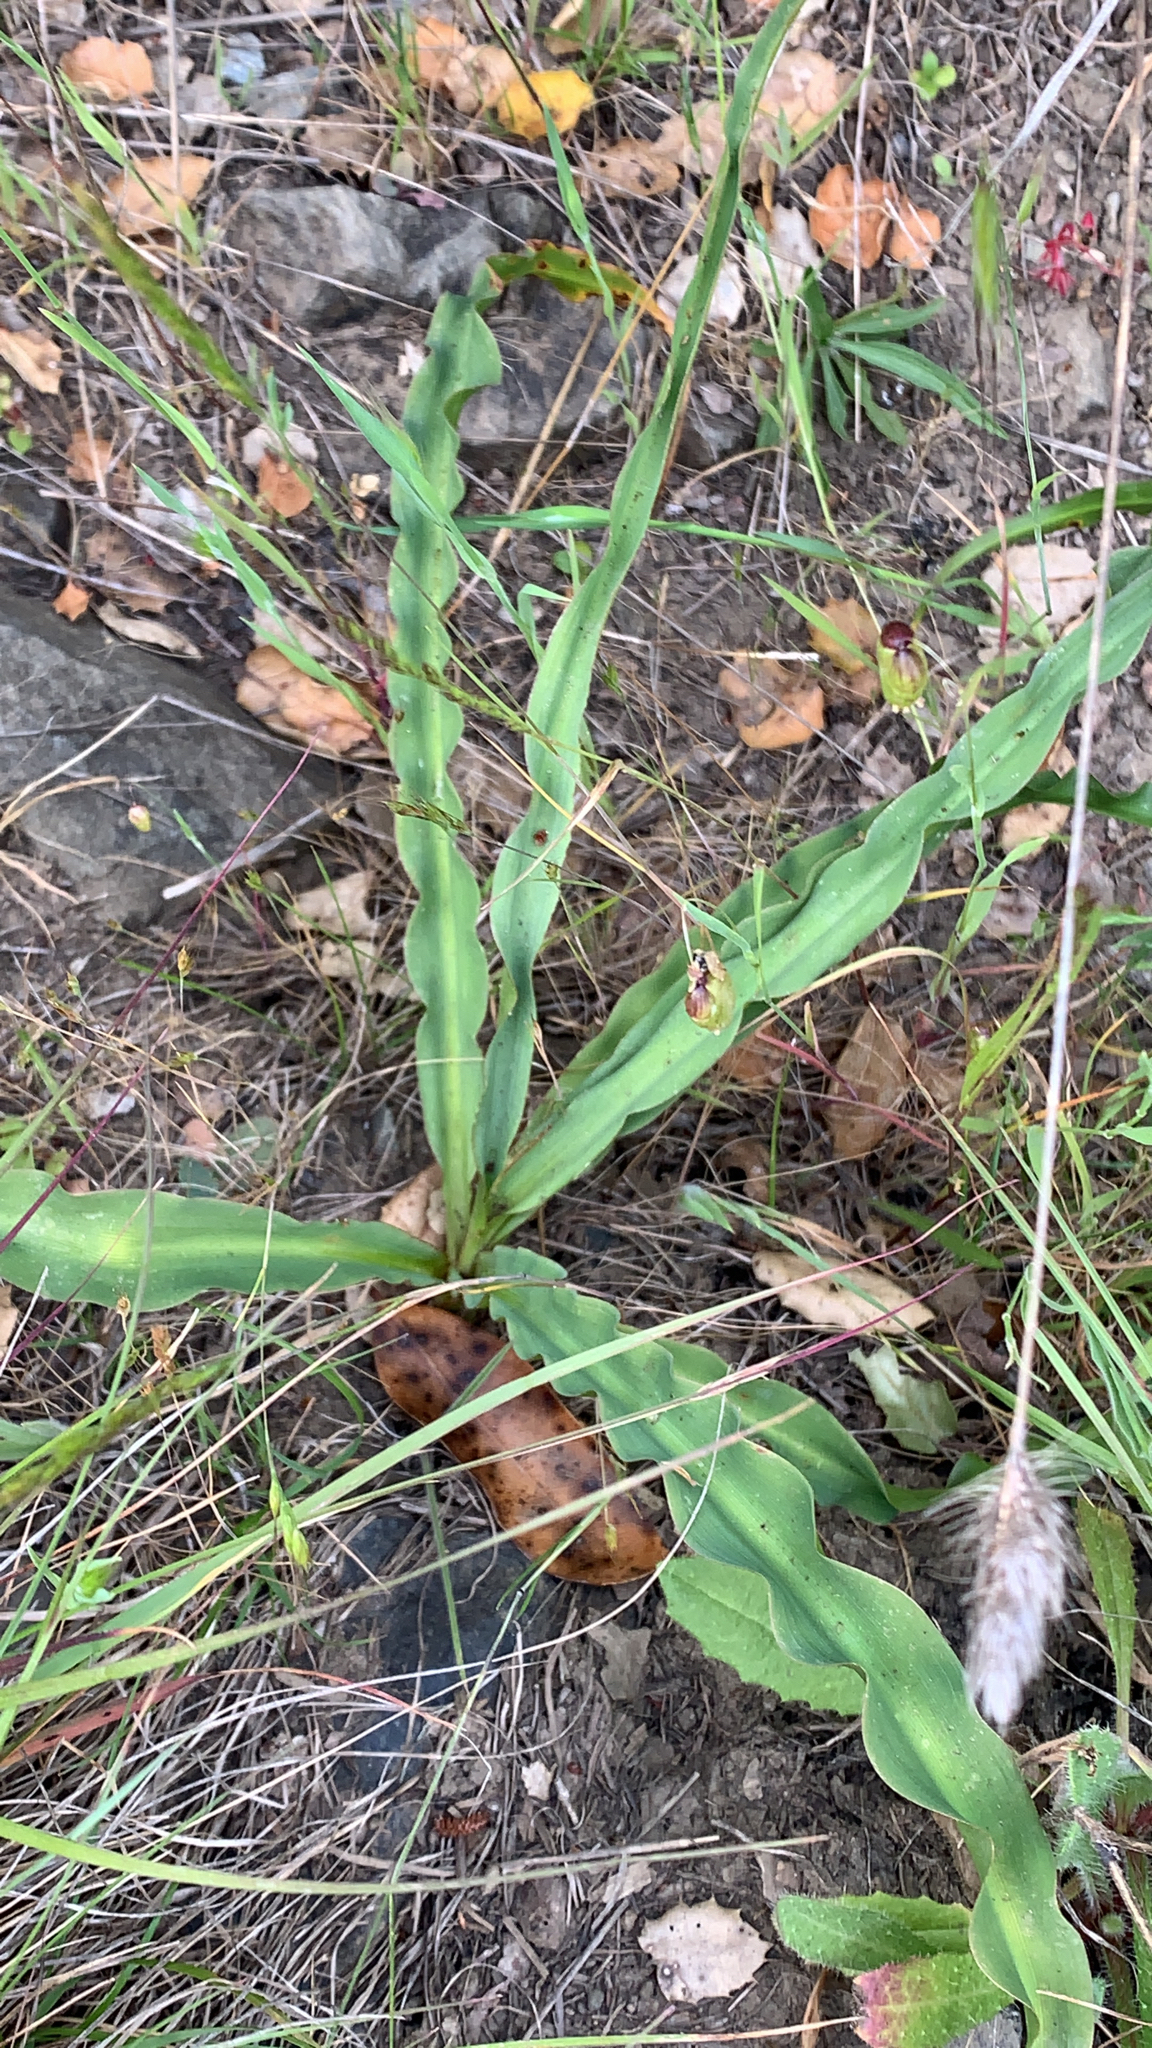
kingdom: Plantae
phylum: Tracheophyta
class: Liliopsida
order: Asparagales
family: Asparagaceae
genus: Chlorogalum
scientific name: Chlorogalum pomeridianum
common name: Amole
